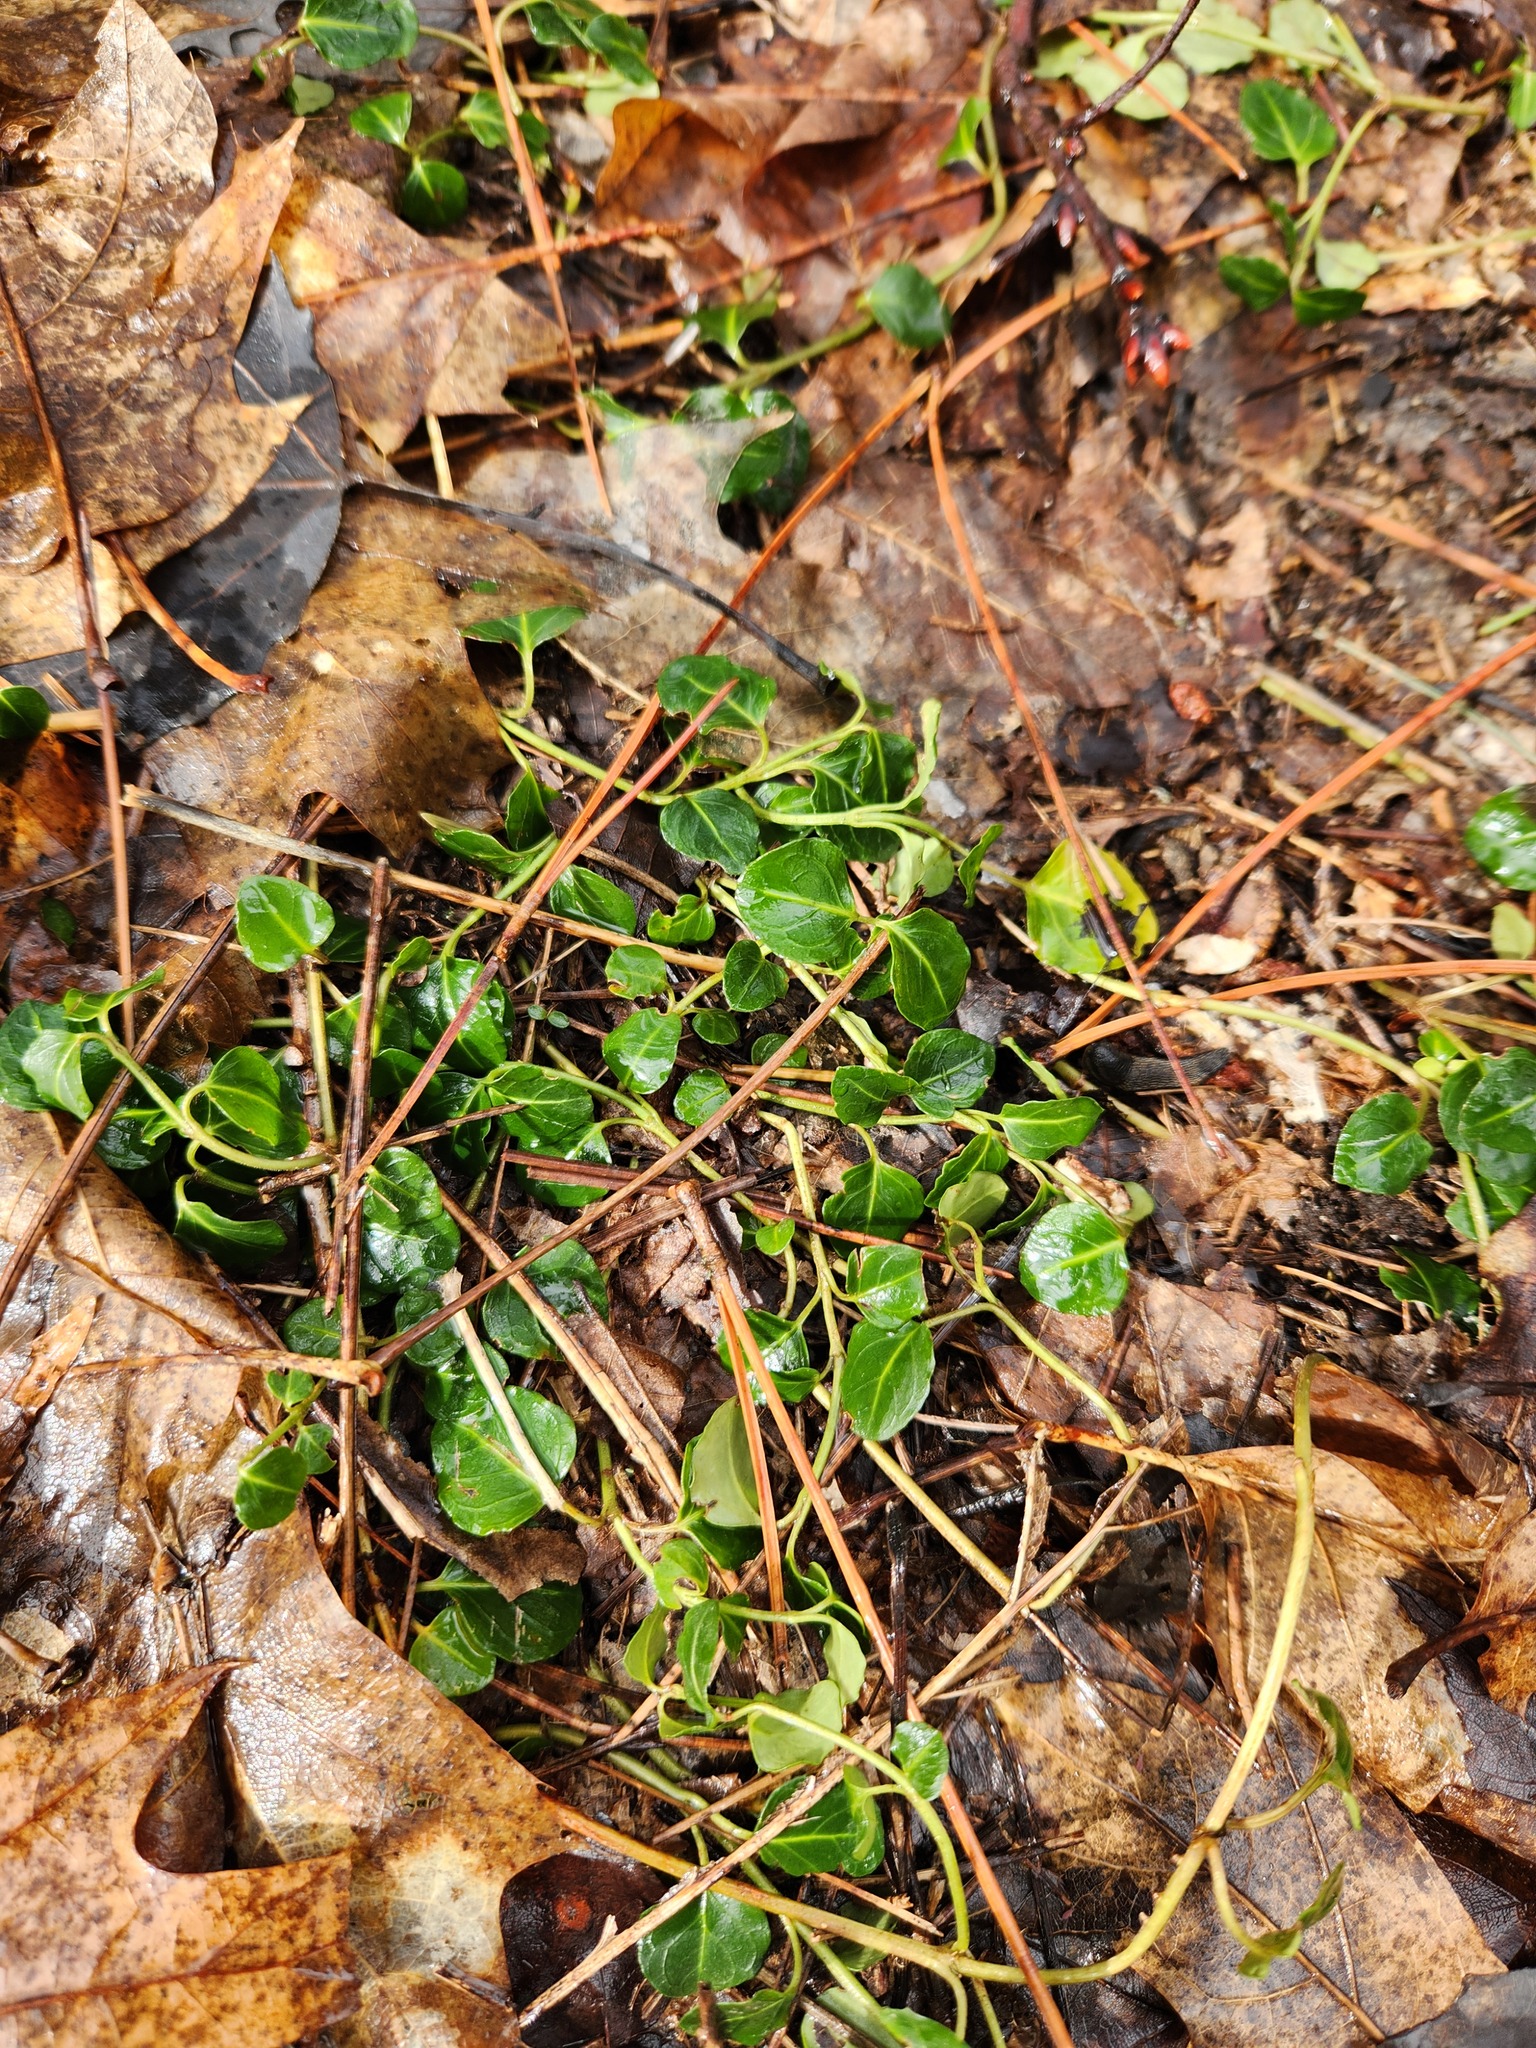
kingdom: Plantae
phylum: Tracheophyta
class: Magnoliopsida
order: Gentianales
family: Rubiaceae
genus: Mitchella
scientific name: Mitchella repens
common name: Partridge-berry
